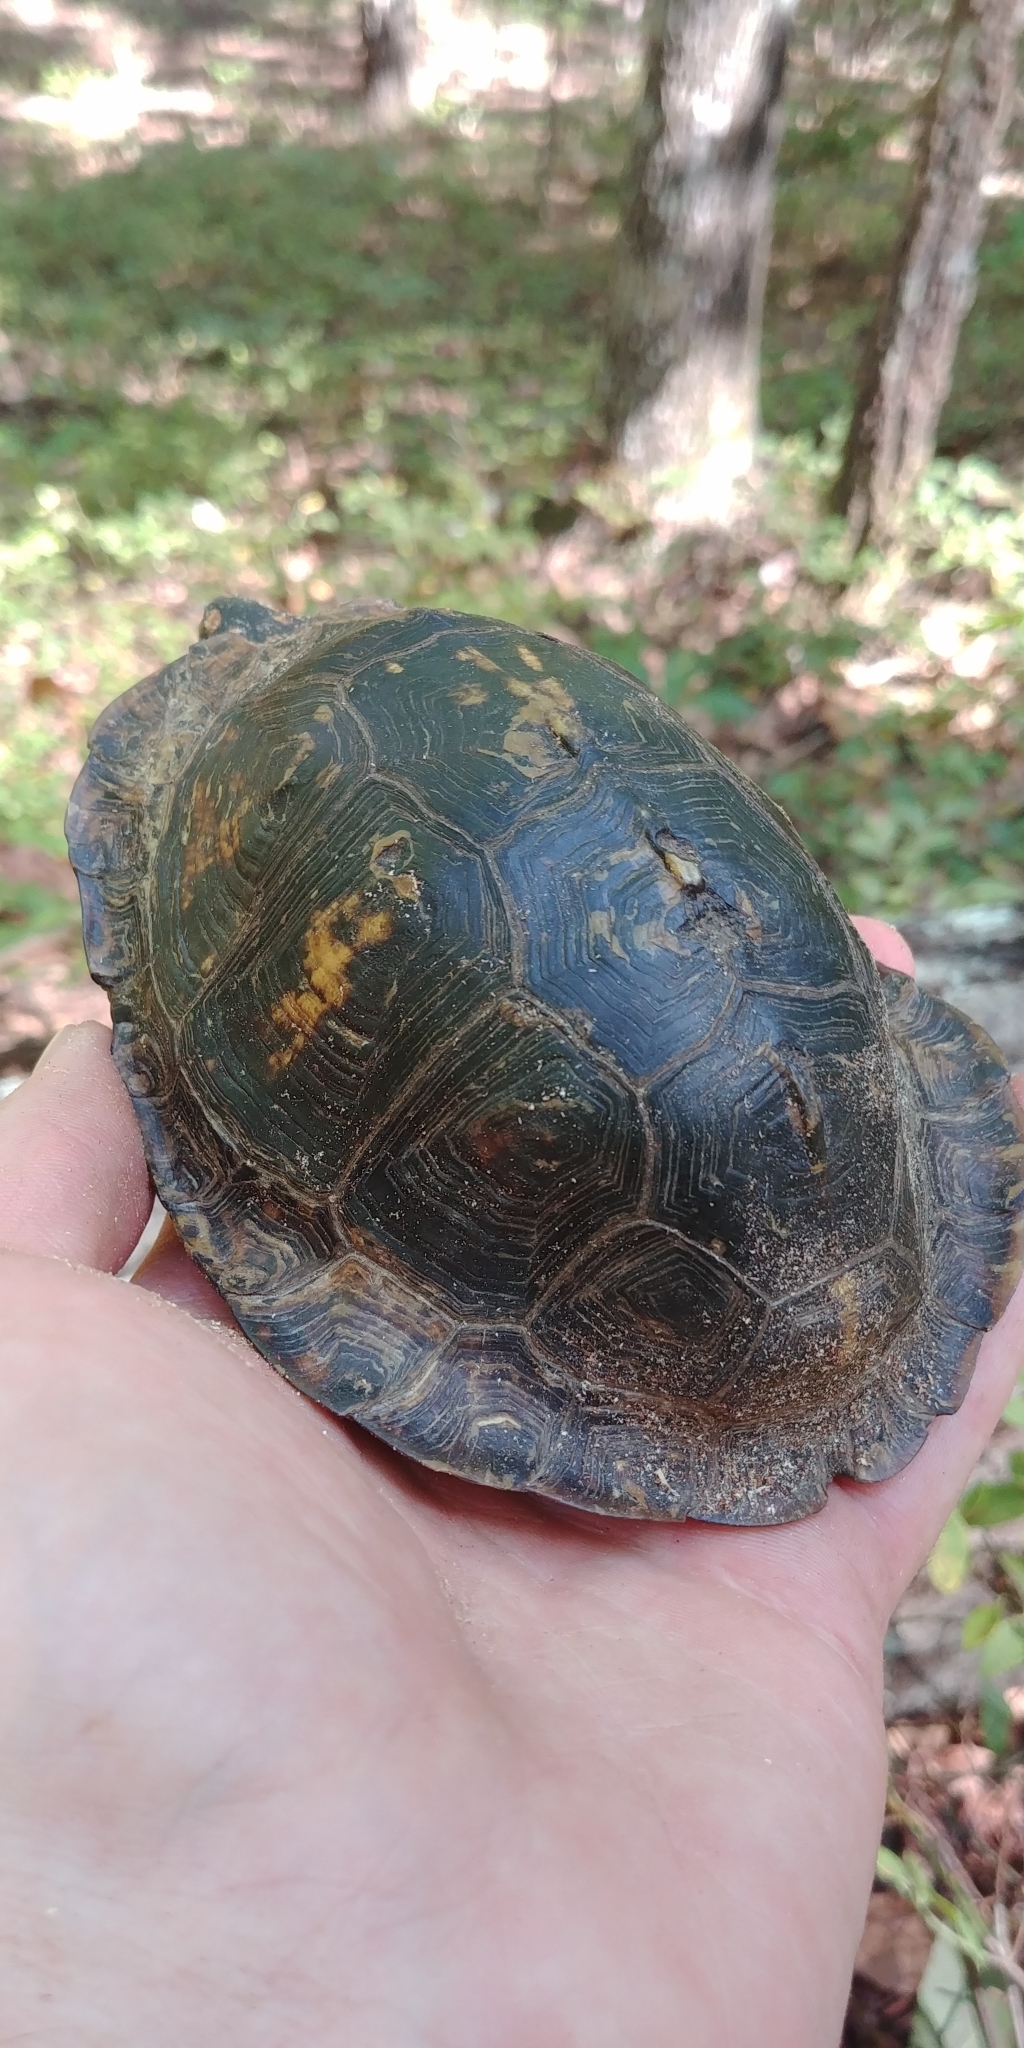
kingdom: Animalia
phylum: Chordata
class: Testudines
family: Emydidae
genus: Terrapene
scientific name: Terrapene carolina
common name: Common box turtle
